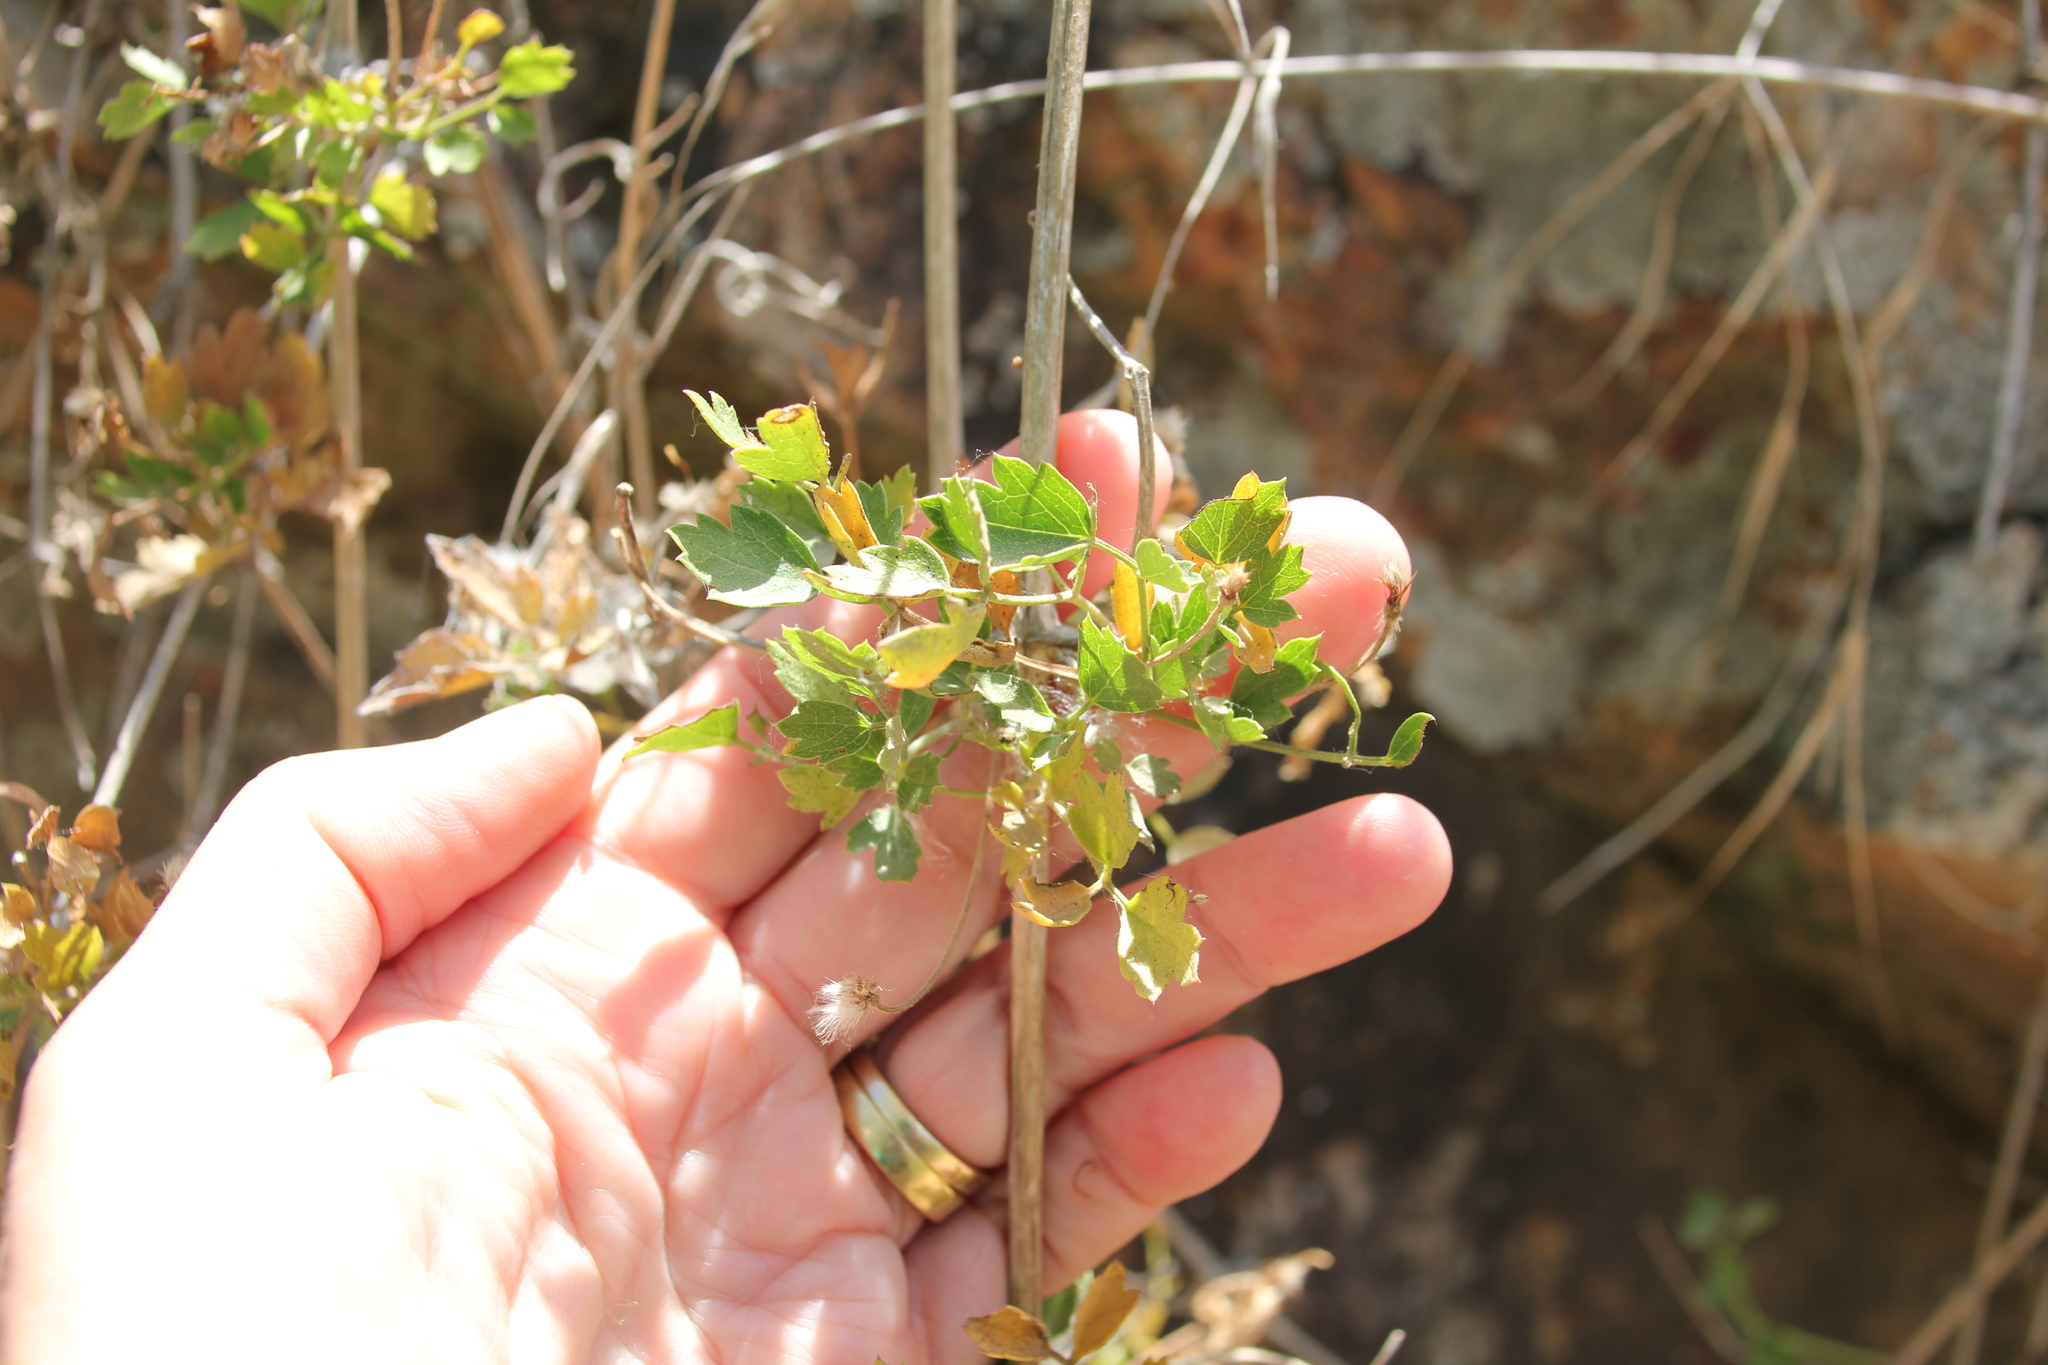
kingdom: Plantae
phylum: Tracheophyta
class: Magnoliopsida
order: Ranunculales
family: Ranunculaceae
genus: Clematis
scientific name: Clematis pauciflora
